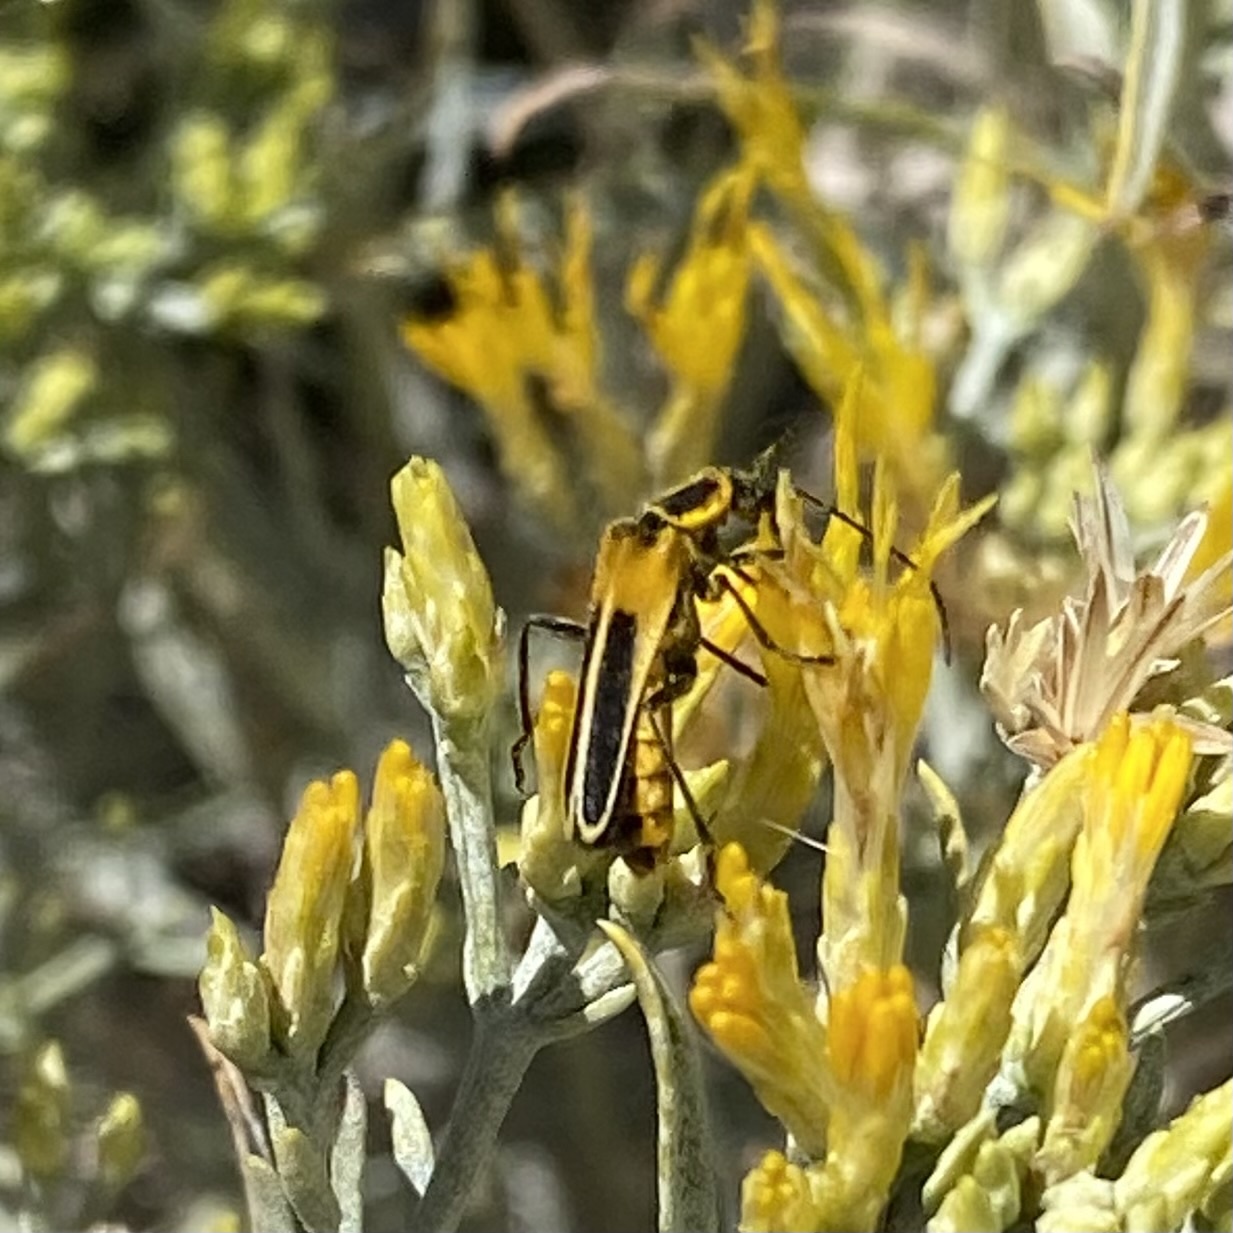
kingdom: Animalia
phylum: Arthropoda
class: Insecta
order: Coleoptera
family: Cantharidae
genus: Chauliognathus
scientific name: Chauliognathus lewisi
